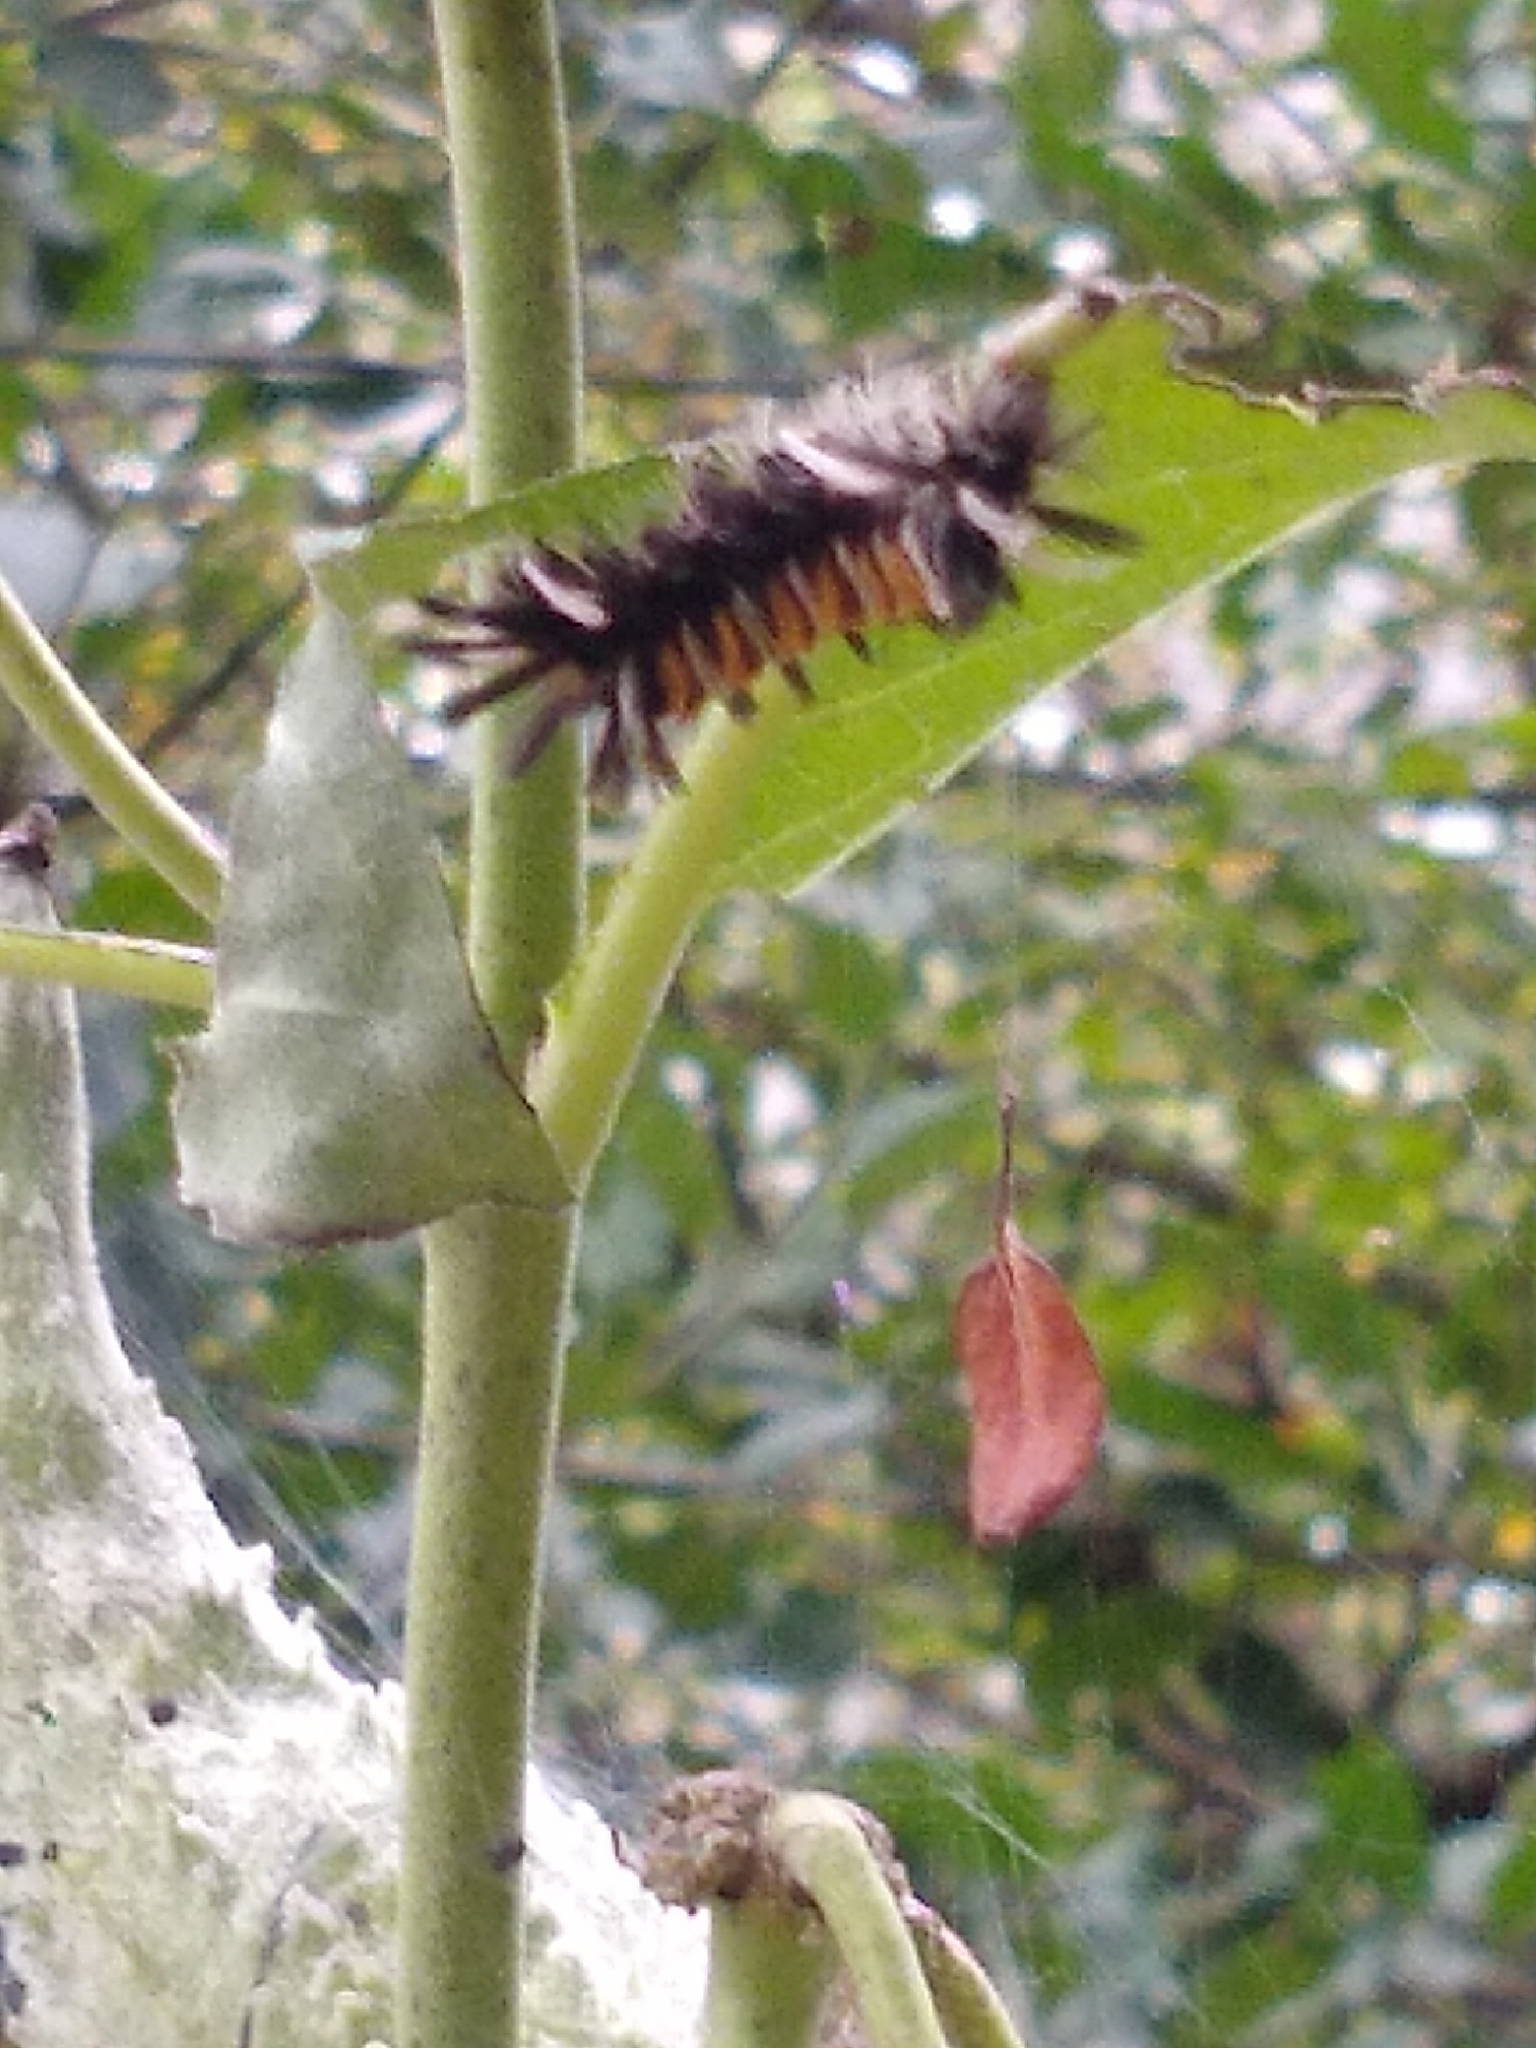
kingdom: Animalia
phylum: Arthropoda
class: Insecta
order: Lepidoptera
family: Erebidae
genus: Euchaetes
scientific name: Euchaetes egle
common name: Milkweed tussock moth
